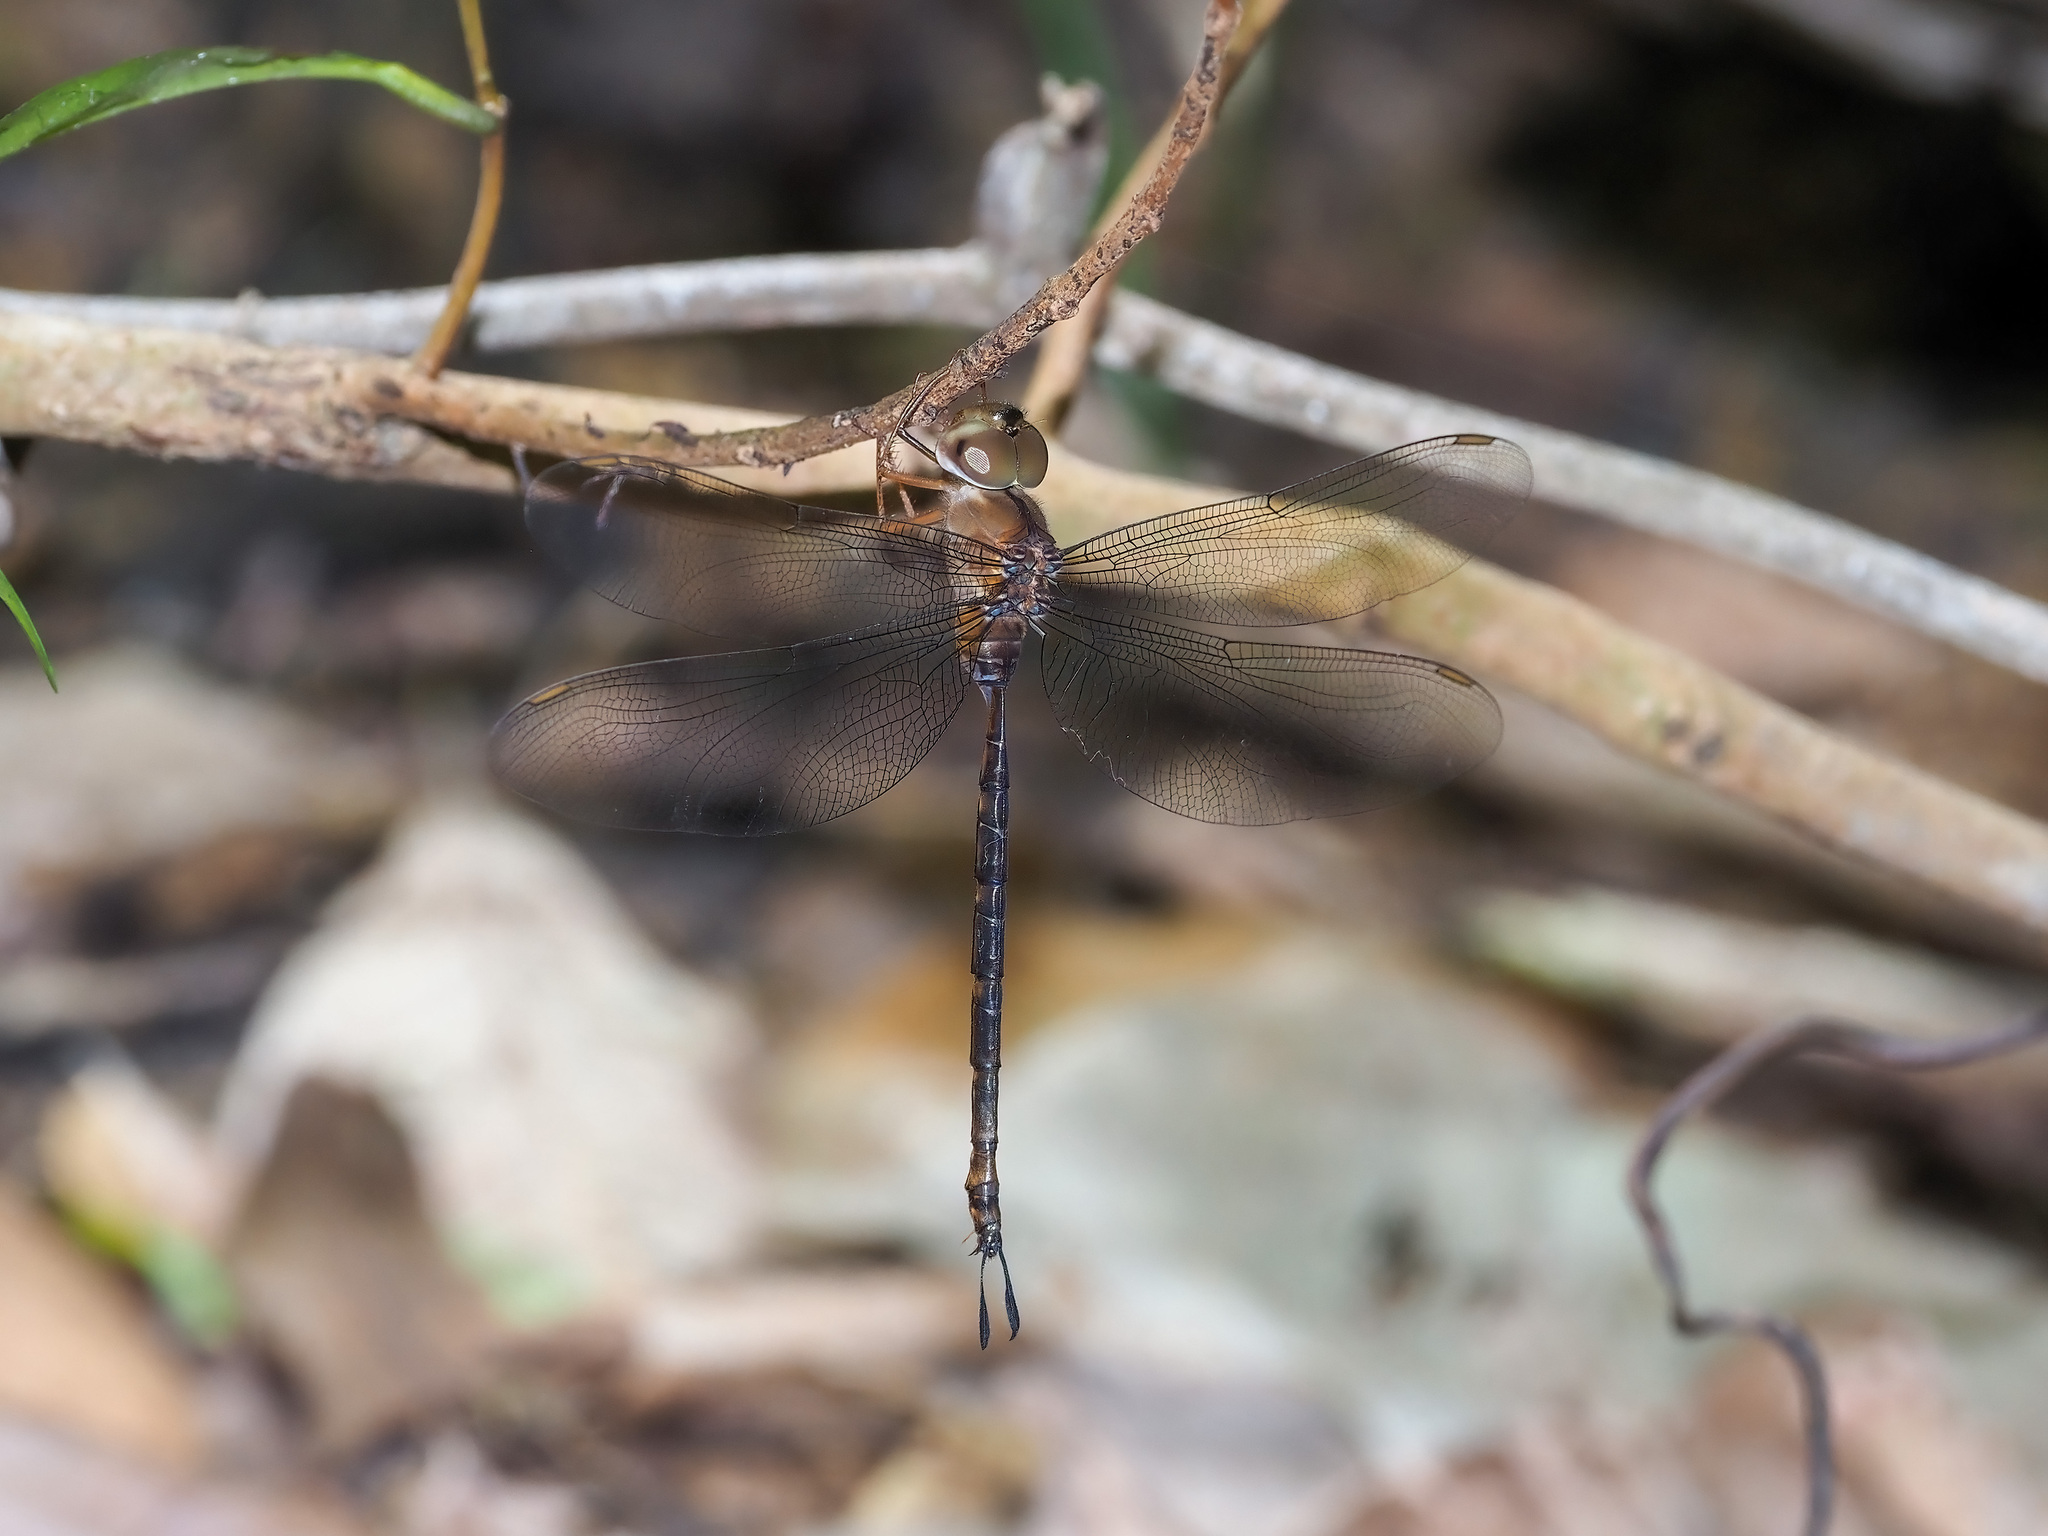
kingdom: Animalia
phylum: Arthropoda
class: Insecta
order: Odonata
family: Aeshnidae
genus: Gynacantha
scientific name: Gynacantha dohrni
